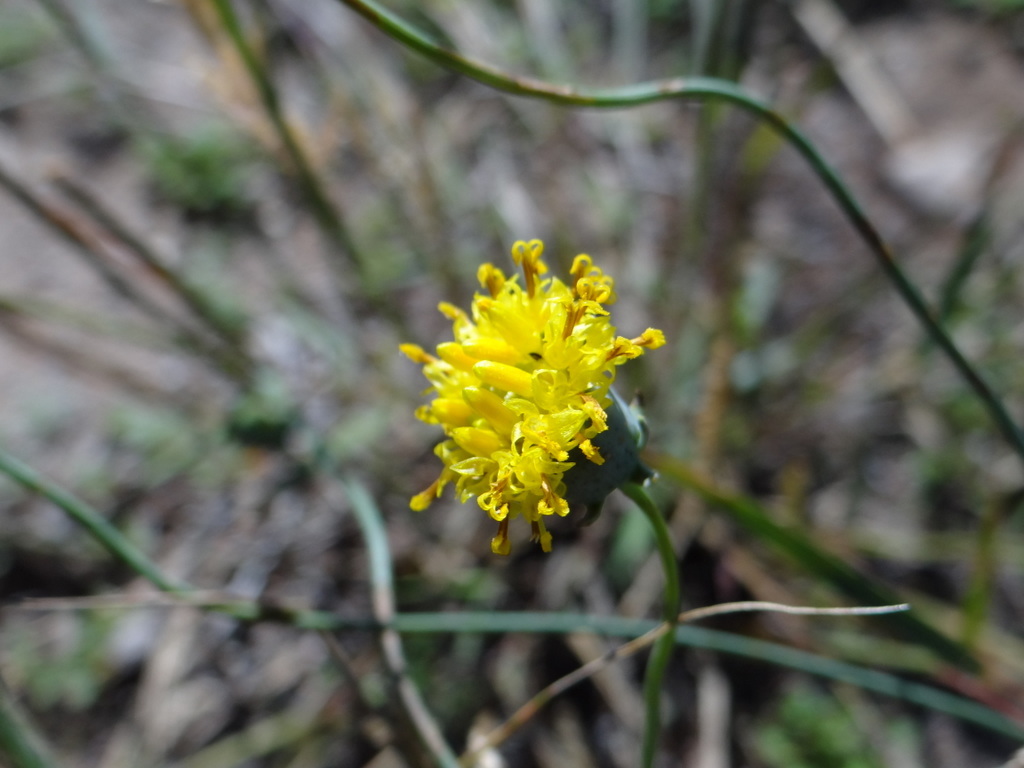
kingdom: Plantae
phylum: Tracheophyta
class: Magnoliopsida
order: Asterales
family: Asteraceae
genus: Thelesperma
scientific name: Thelesperma megapotamicum
